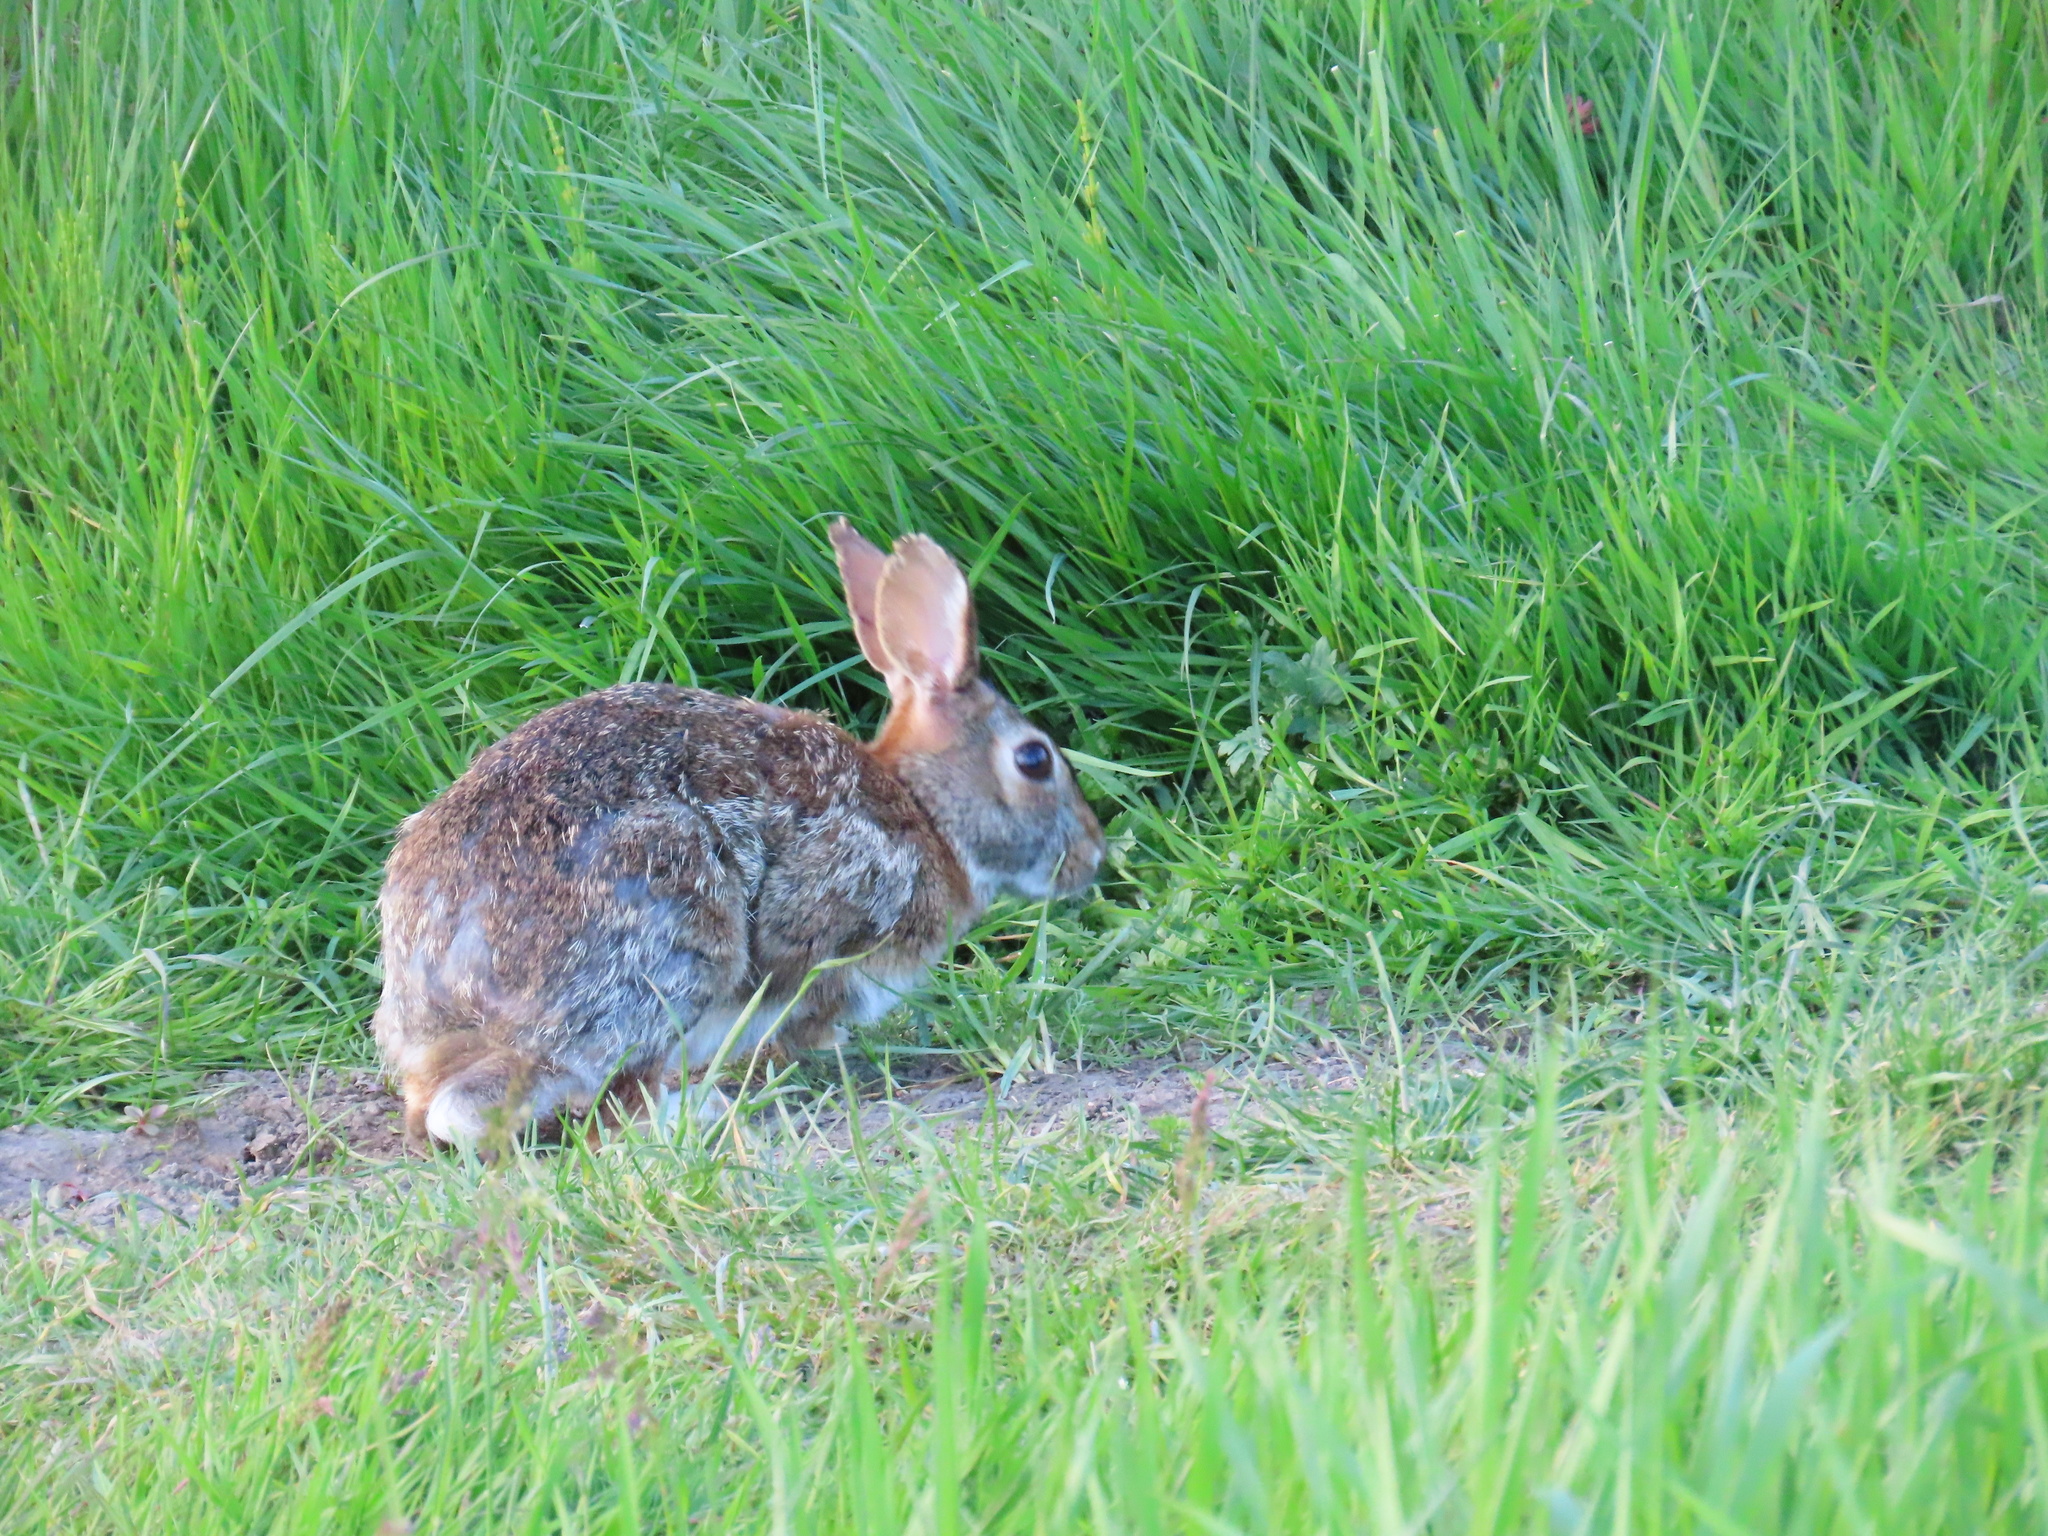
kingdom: Animalia
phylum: Chordata
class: Mammalia
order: Lagomorpha
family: Leporidae
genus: Sylvilagus
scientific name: Sylvilagus floridanus
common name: Eastern cottontail
